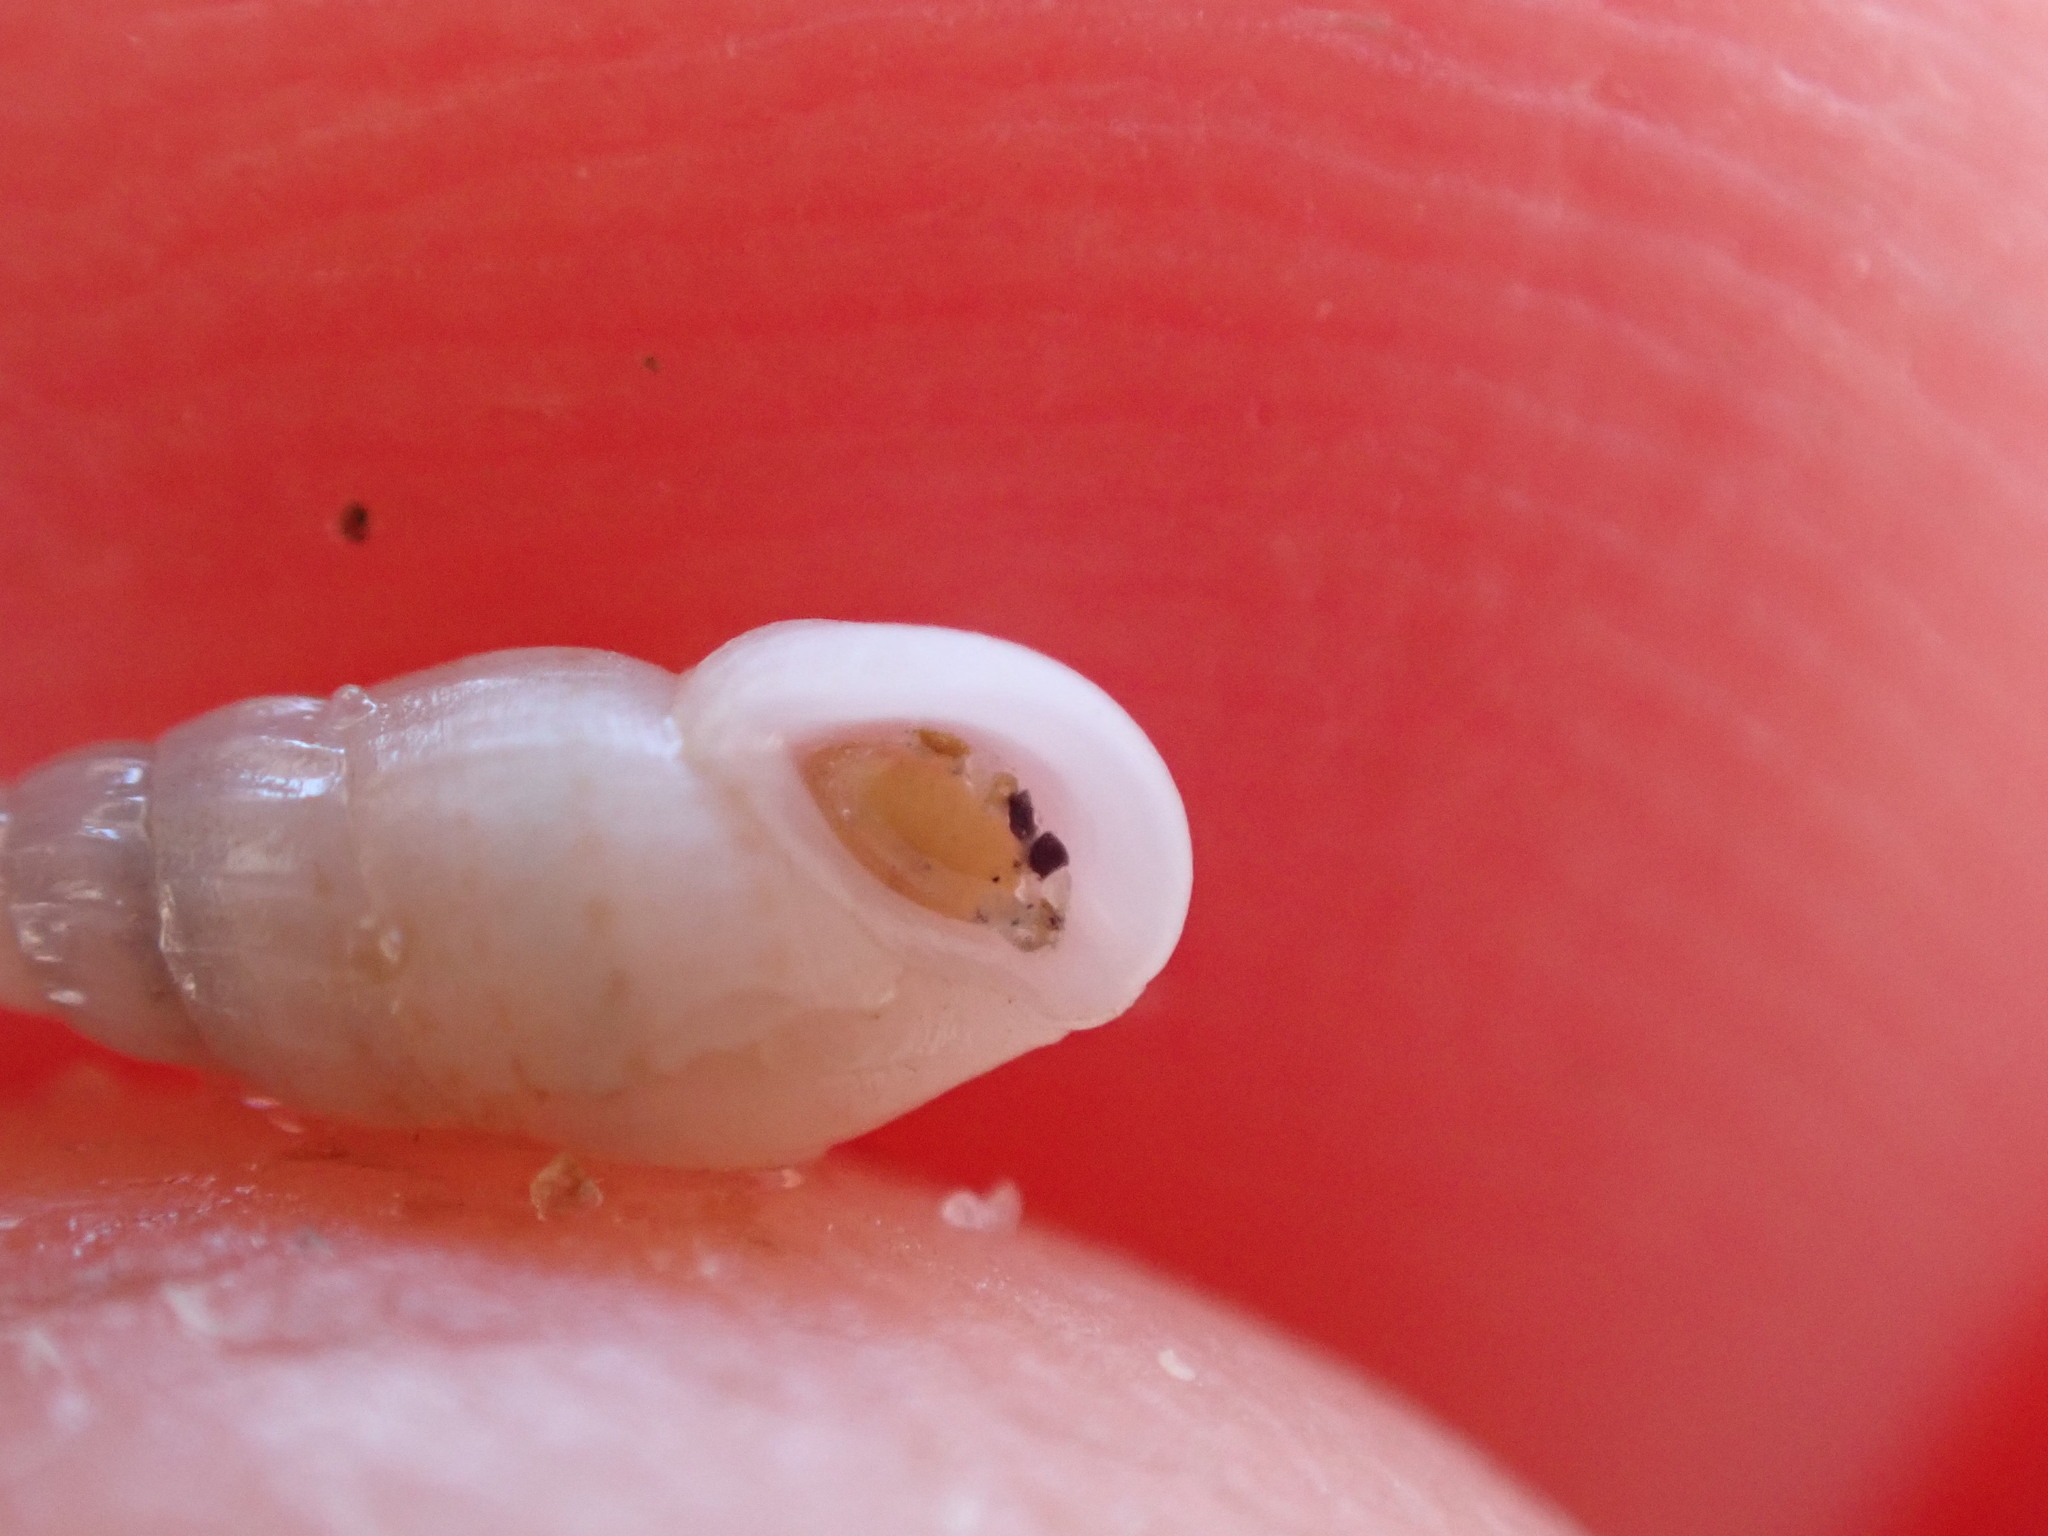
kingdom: Animalia
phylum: Mollusca
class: Gastropoda
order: Littorinimorpha
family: Rissoinidae
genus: Rissoina
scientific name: Rissoina chathamensis
